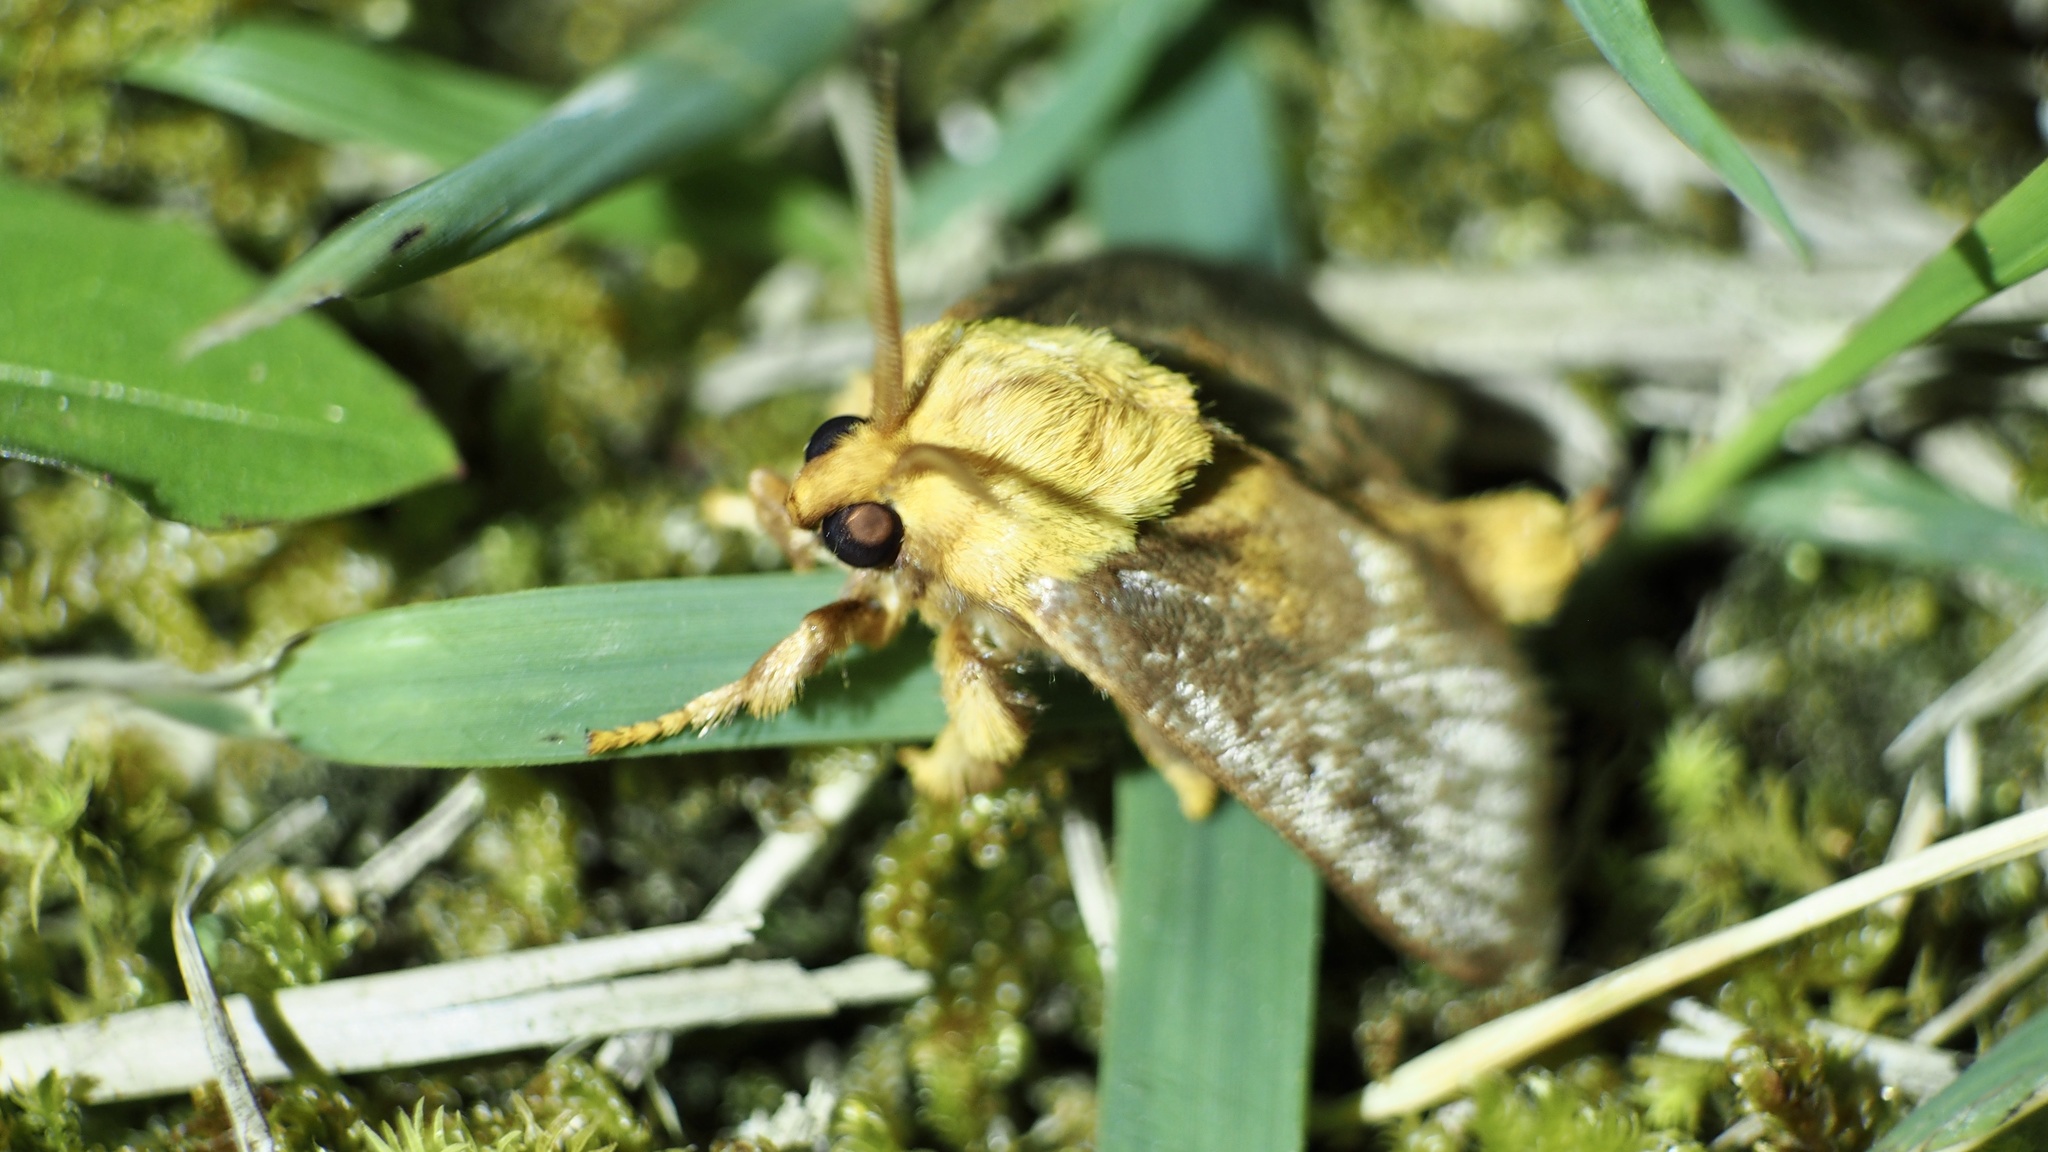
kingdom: Animalia
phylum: Arthropoda
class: Insecta
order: Lepidoptera
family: Limacodidae
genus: Narosoideus
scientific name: Narosoideus flavidorsalis
